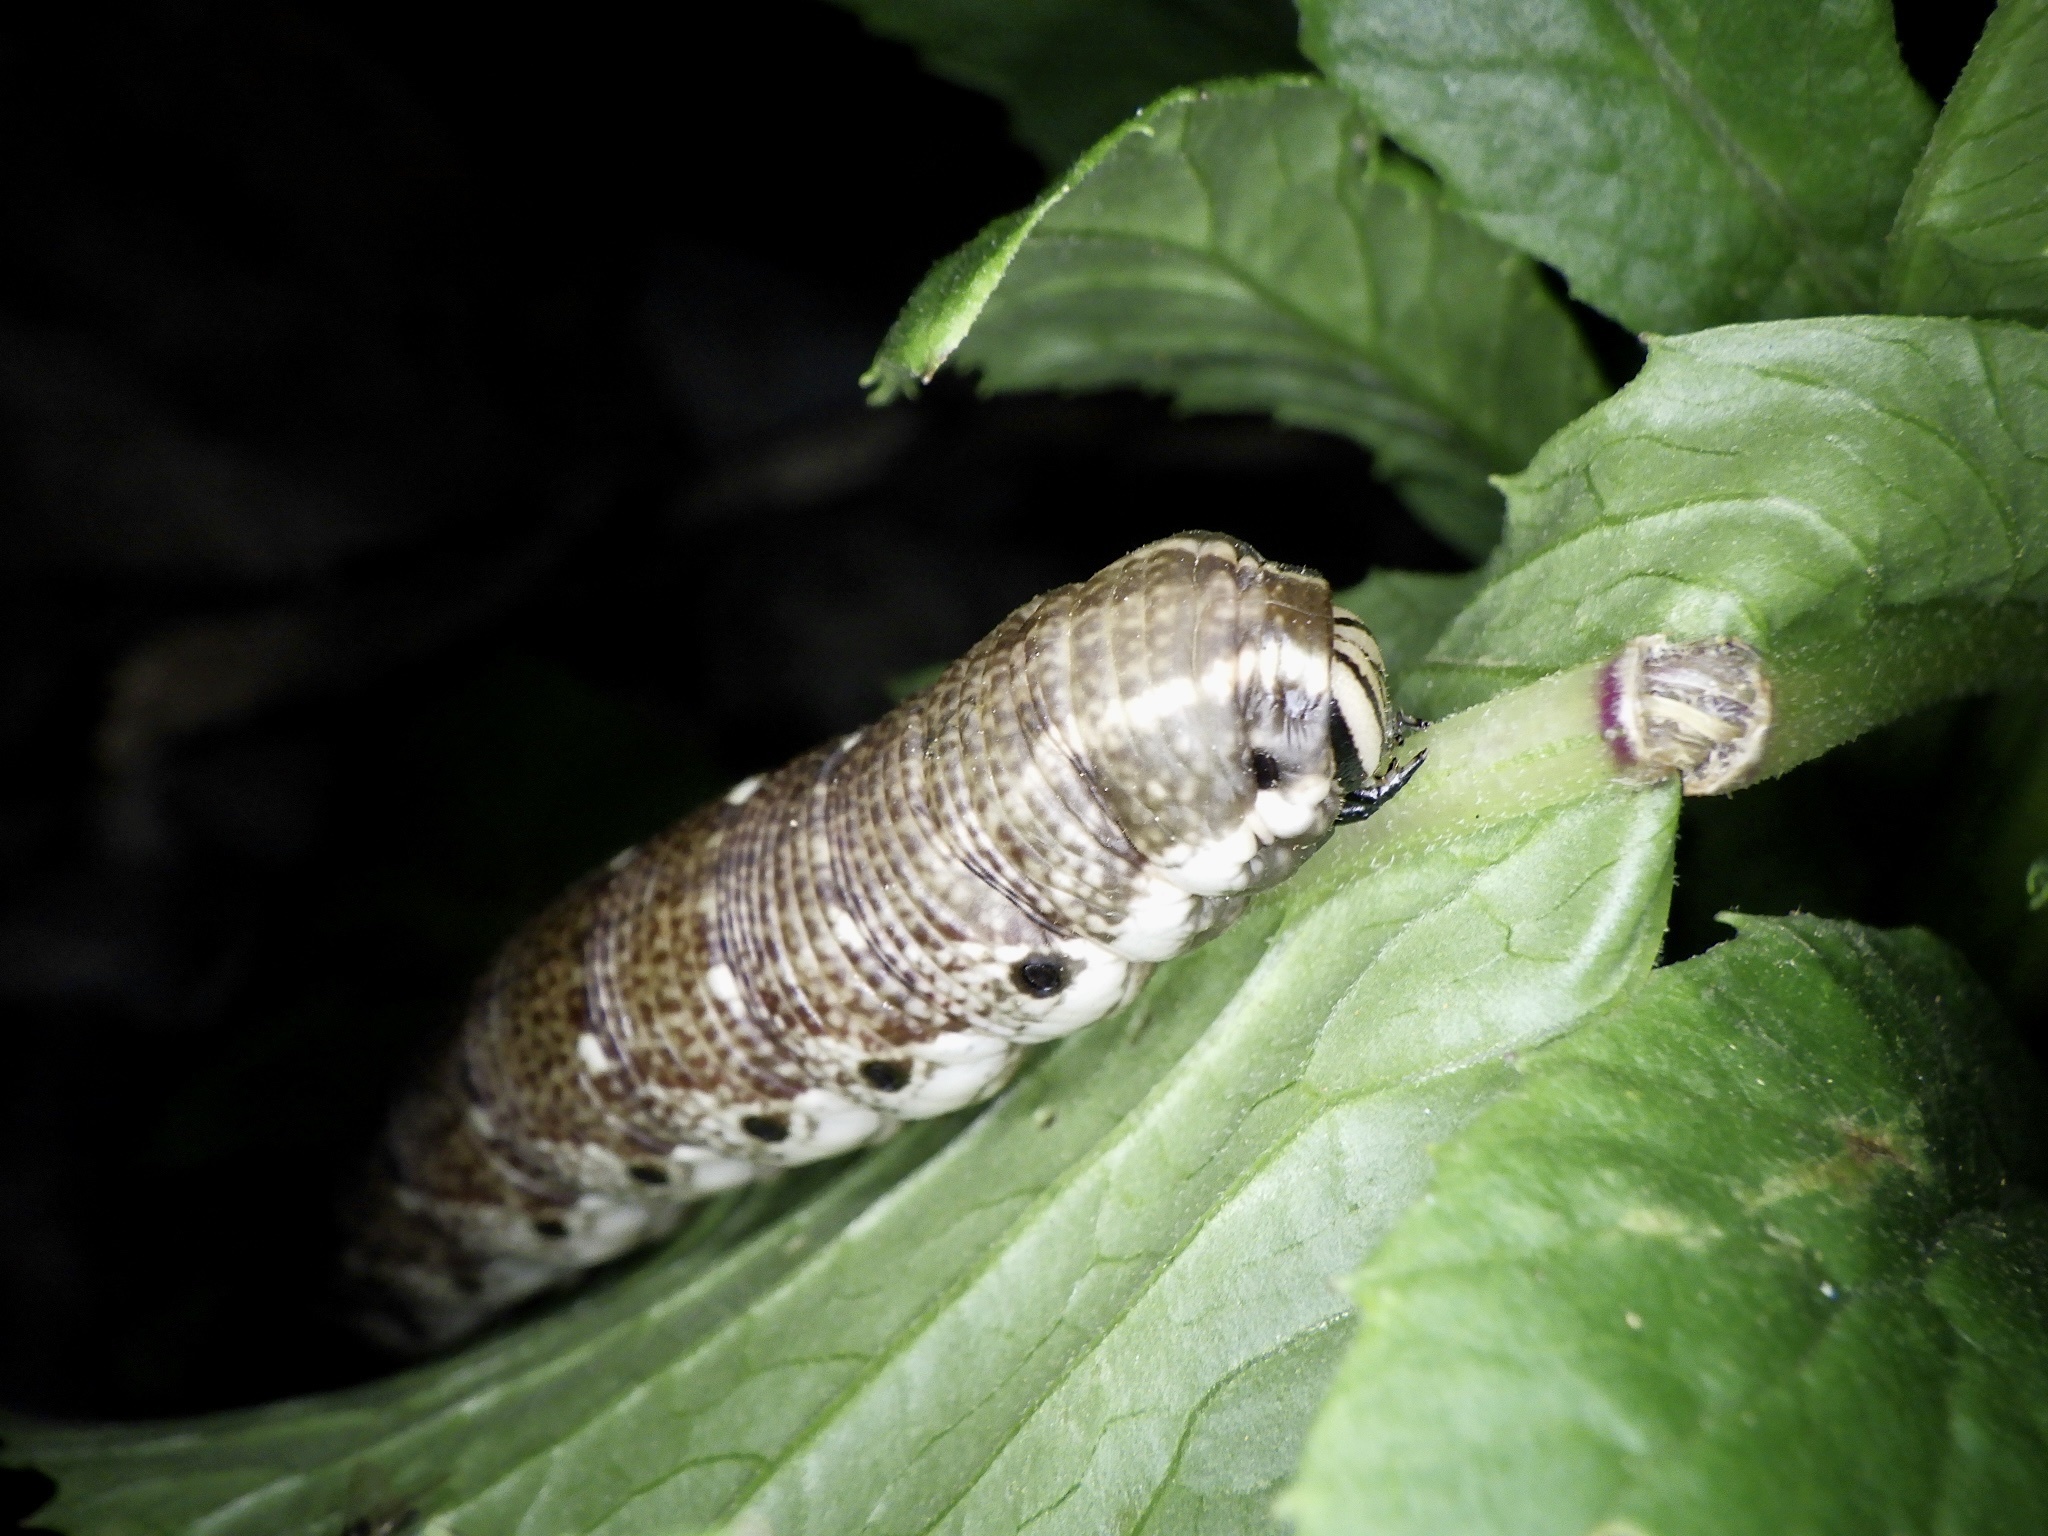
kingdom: Animalia
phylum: Arthropoda
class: Insecta
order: Lepidoptera
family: Sphingidae
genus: Agrius
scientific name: Agrius convolvuli
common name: Convolvulus hawkmoth
